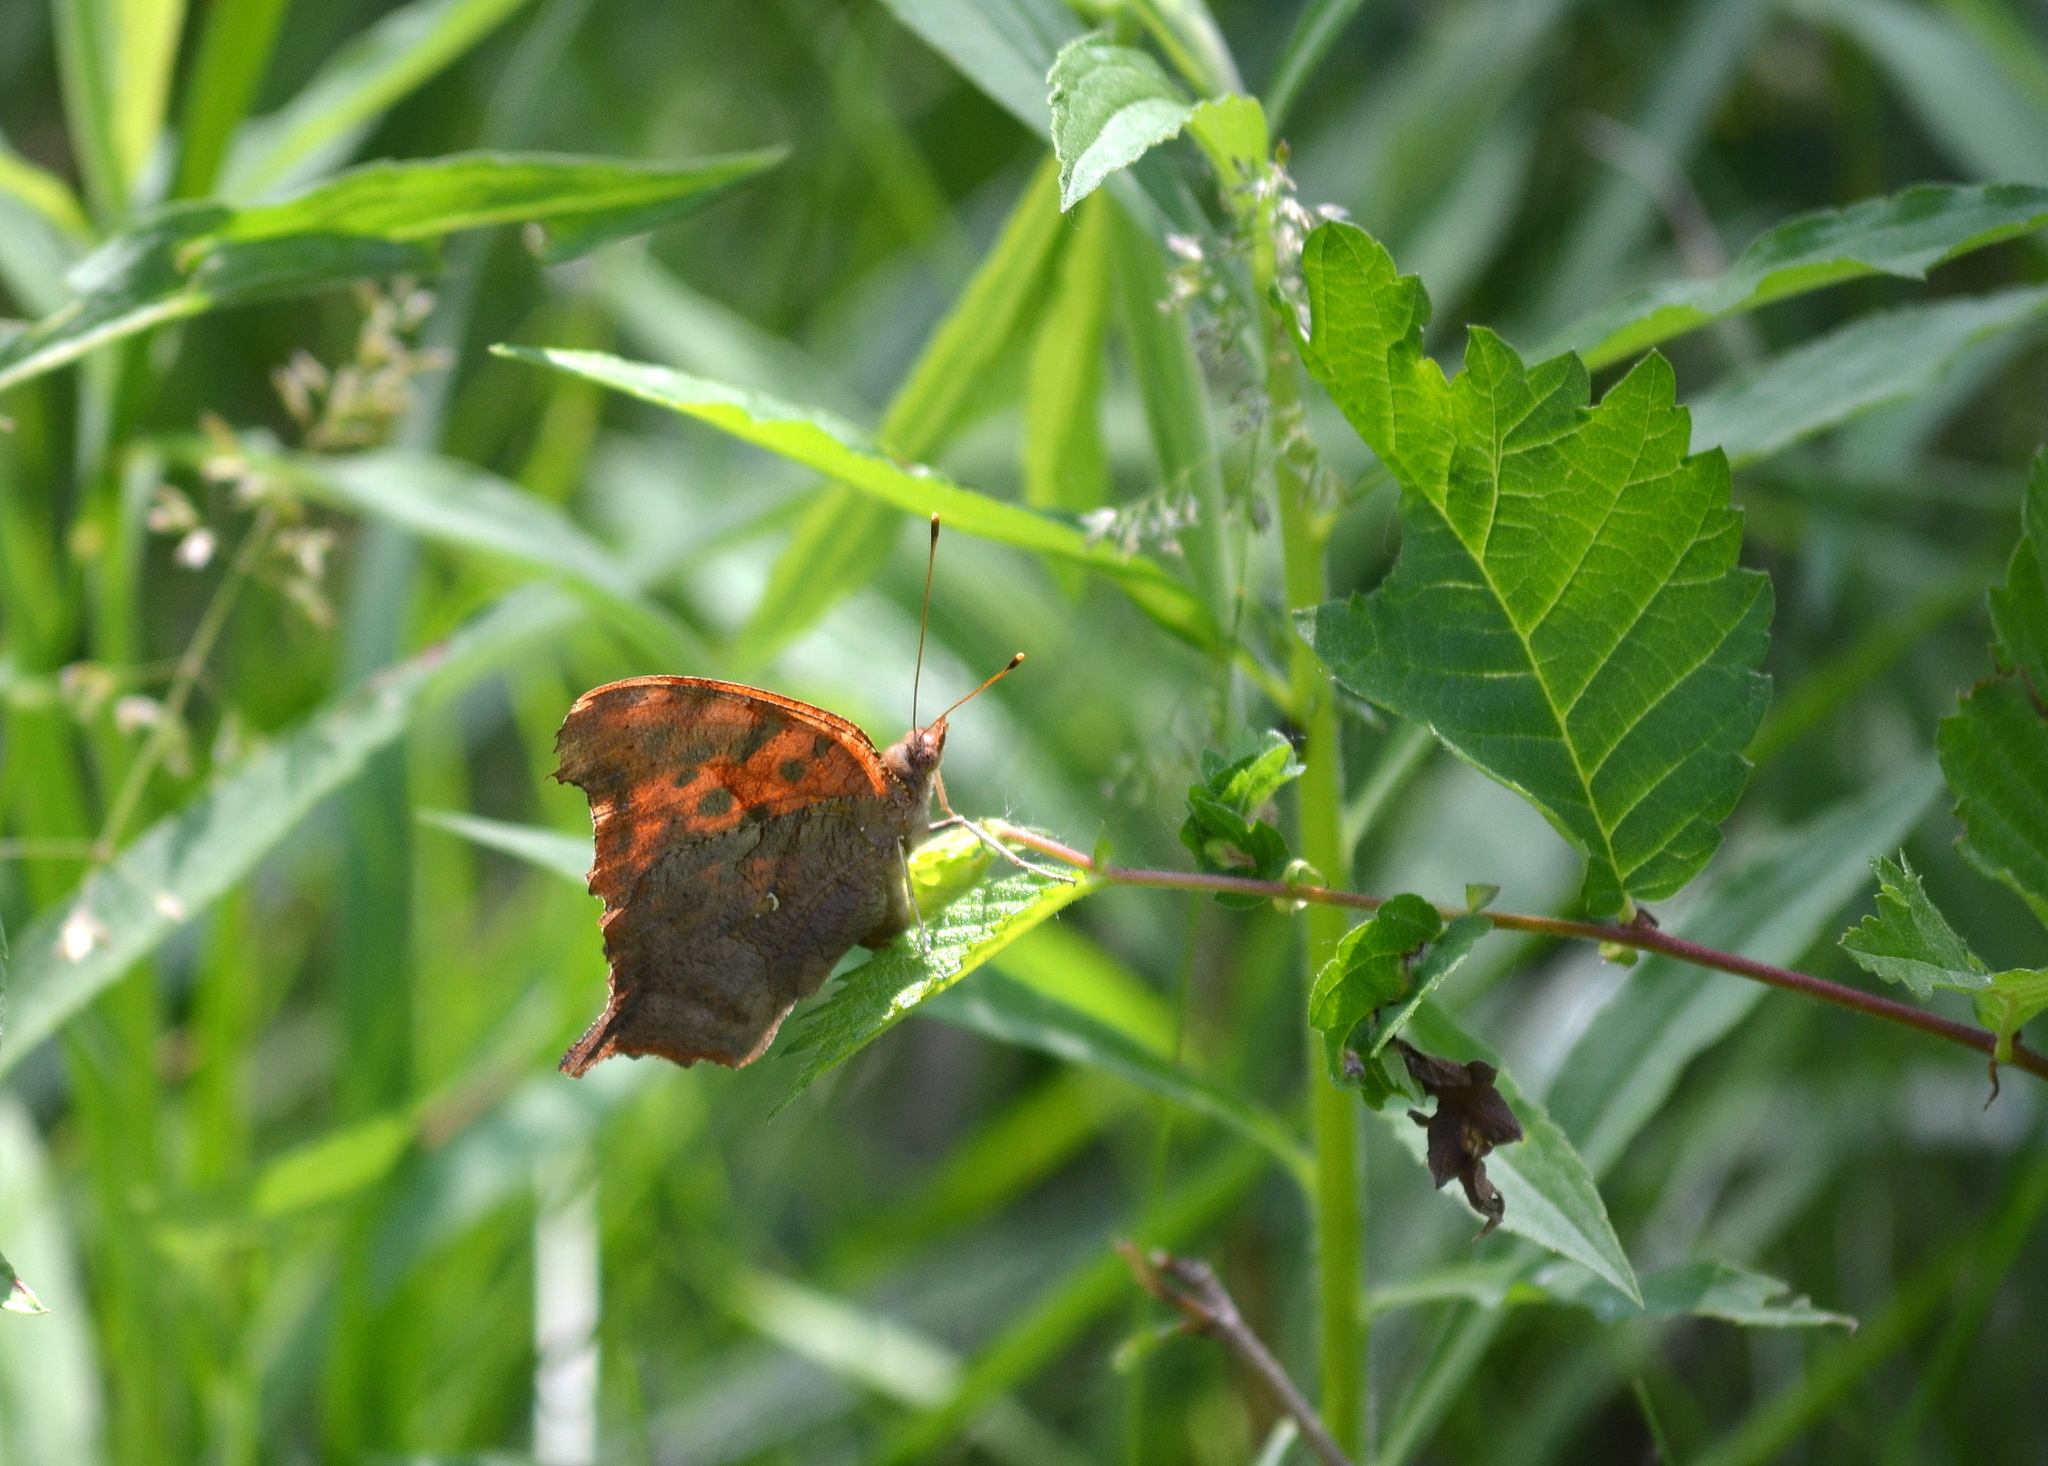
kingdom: Animalia
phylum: Arthropoda
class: Insecta
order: Lepidoptera
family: Nymphalidae
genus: Polygonia
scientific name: Polygonia interrogationis
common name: Question mark
